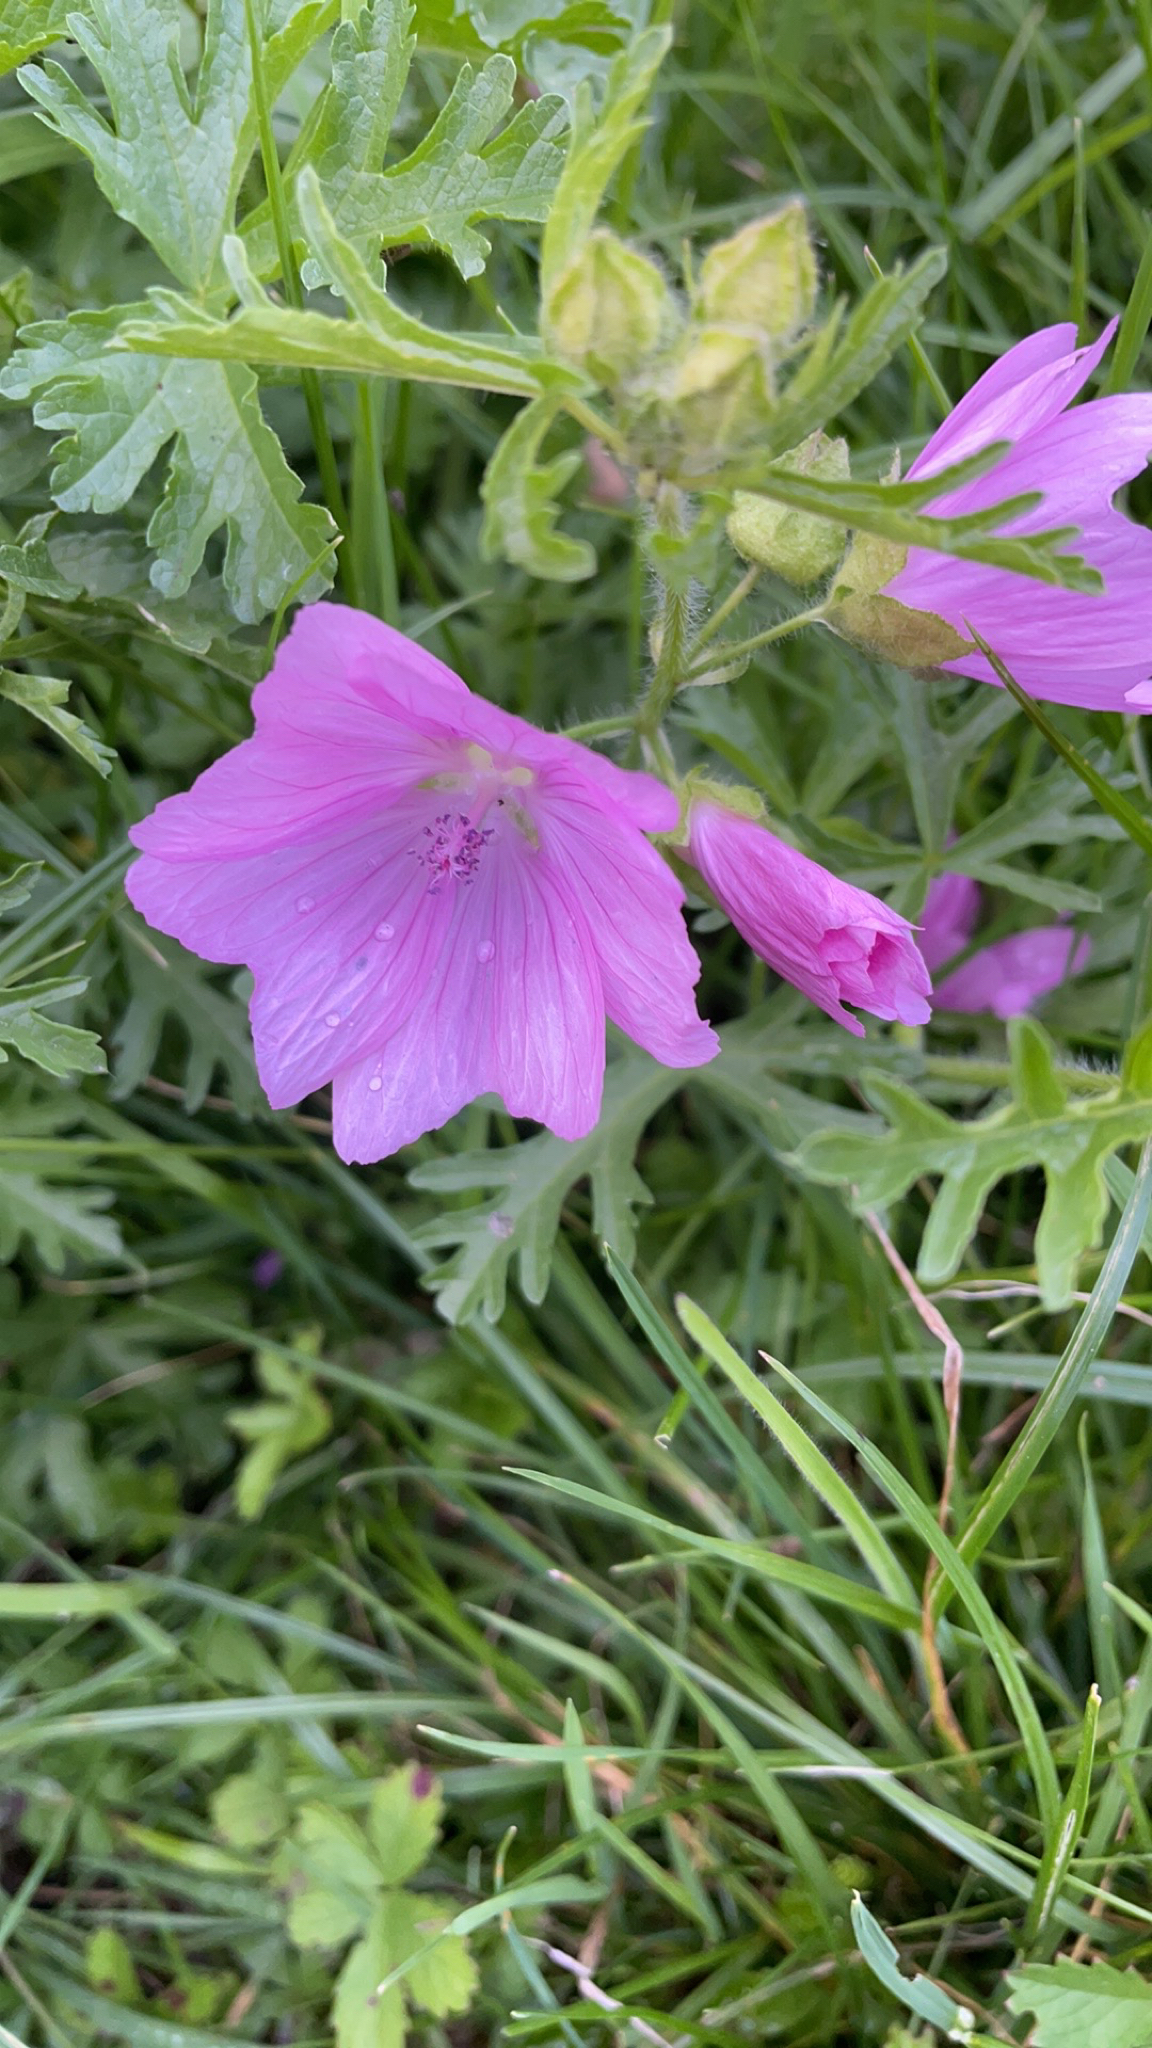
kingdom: Plantae
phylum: Tracheophyta
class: Magnoliopsida
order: Malvales
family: Malvaceae
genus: Malva
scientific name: Malva moschata
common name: Musk mallow
